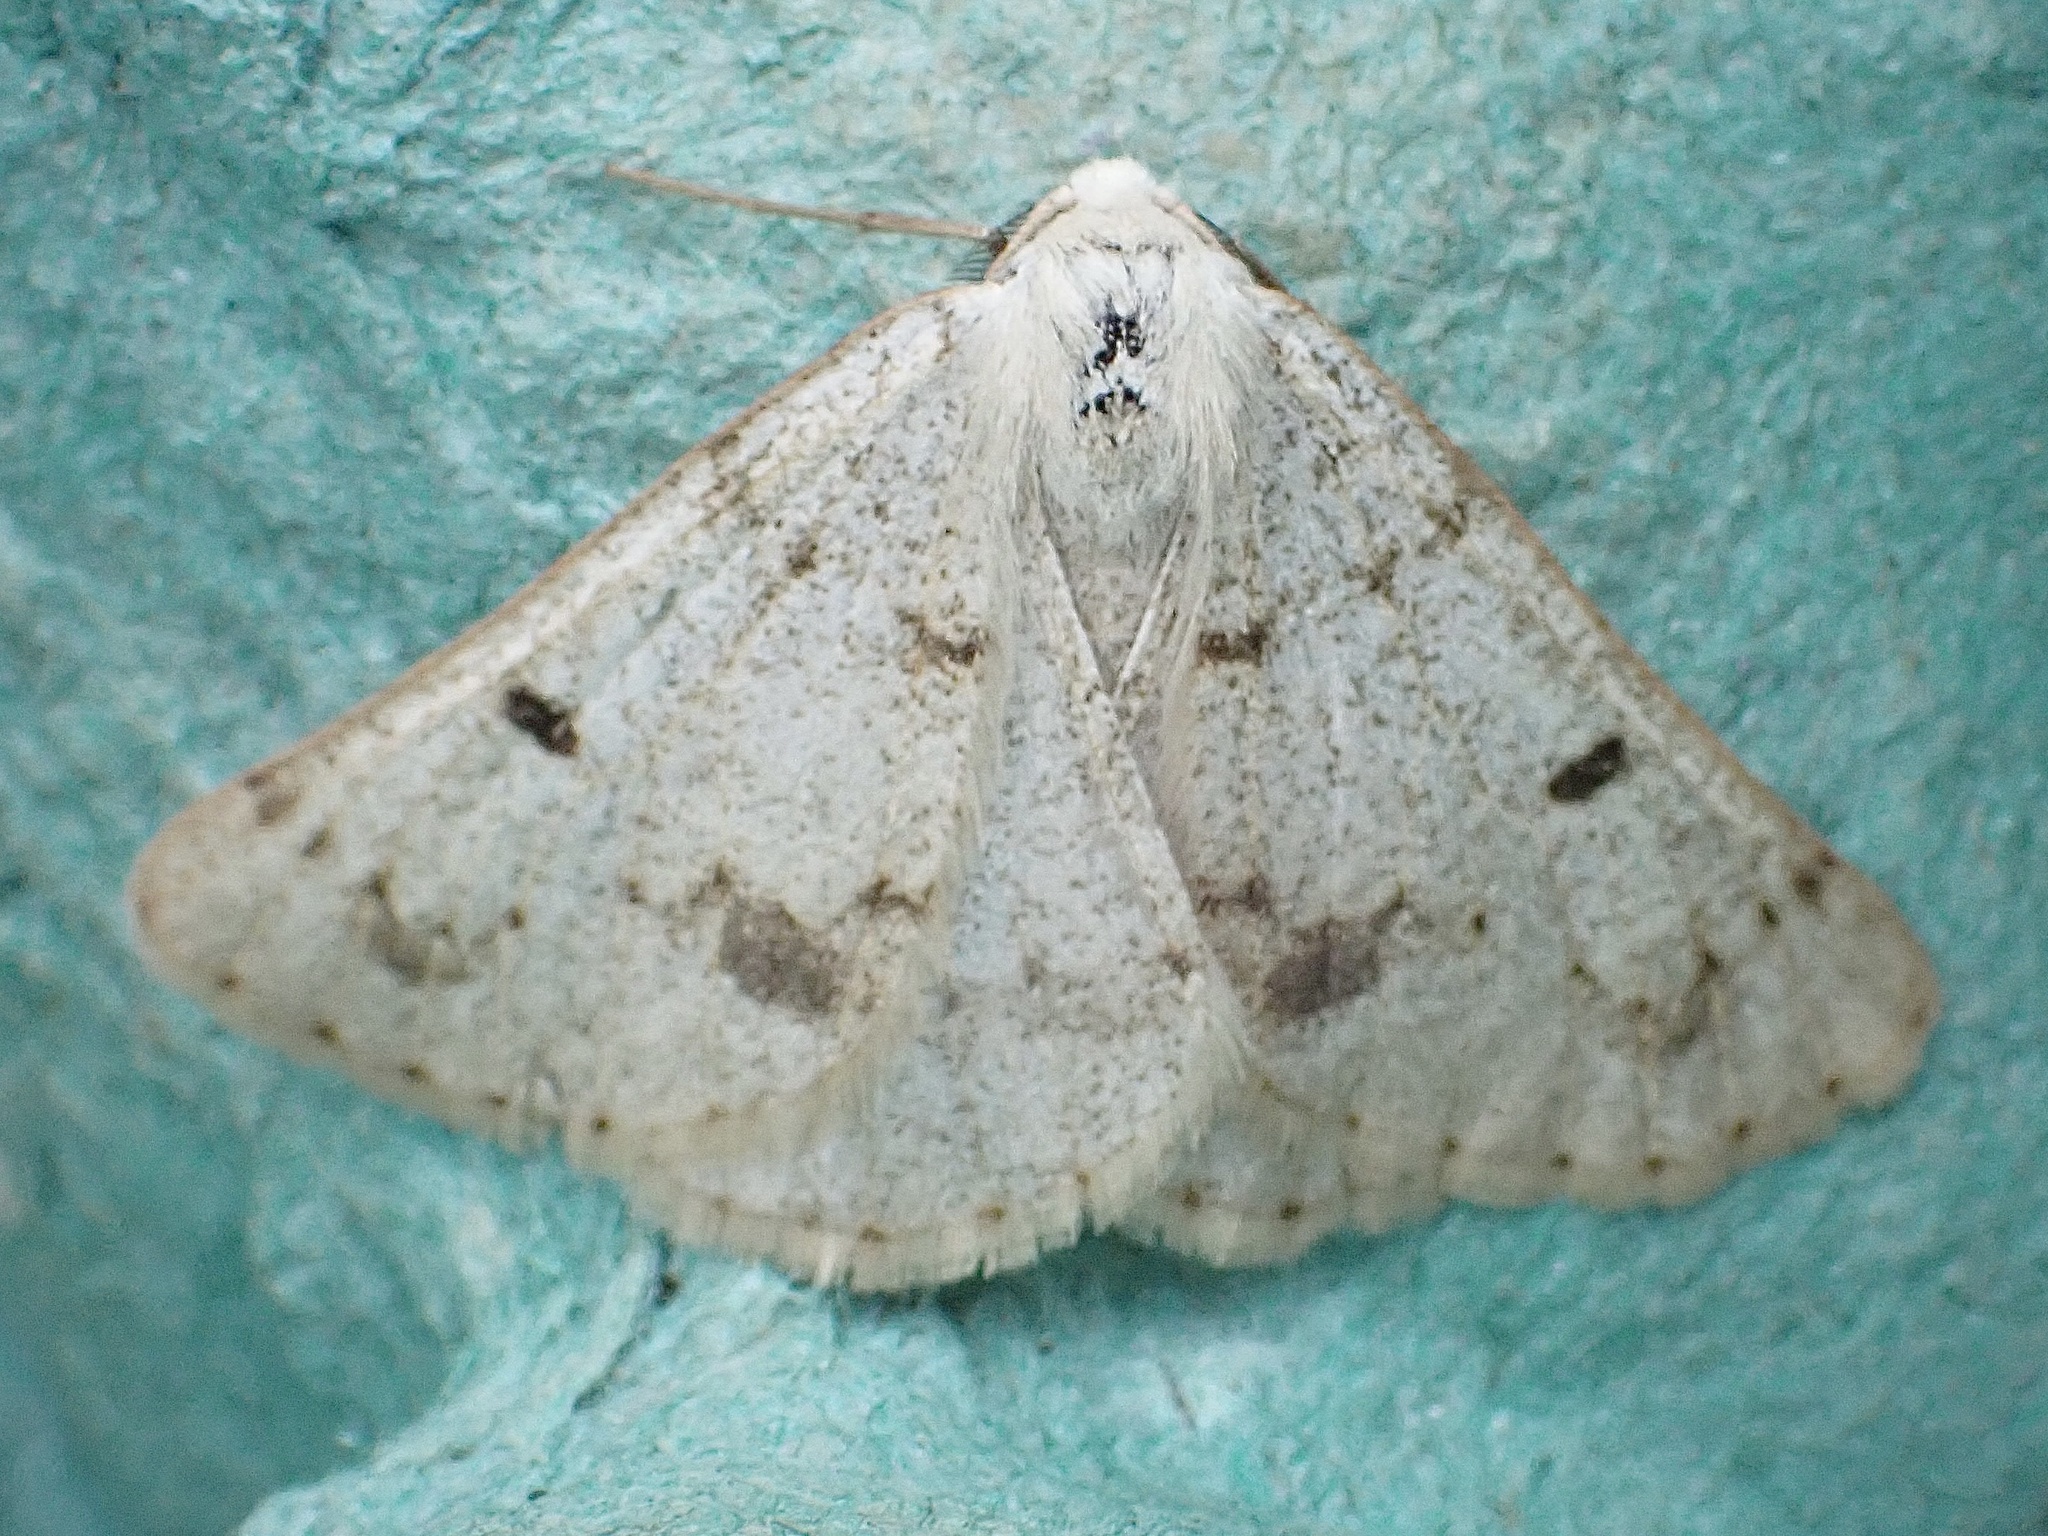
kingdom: Animalia
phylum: Arthropoda
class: Insecta
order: Lepidoptera
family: Geometridae
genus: Dyscia
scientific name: Dyscia fagaria
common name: Grey scalloped bar
